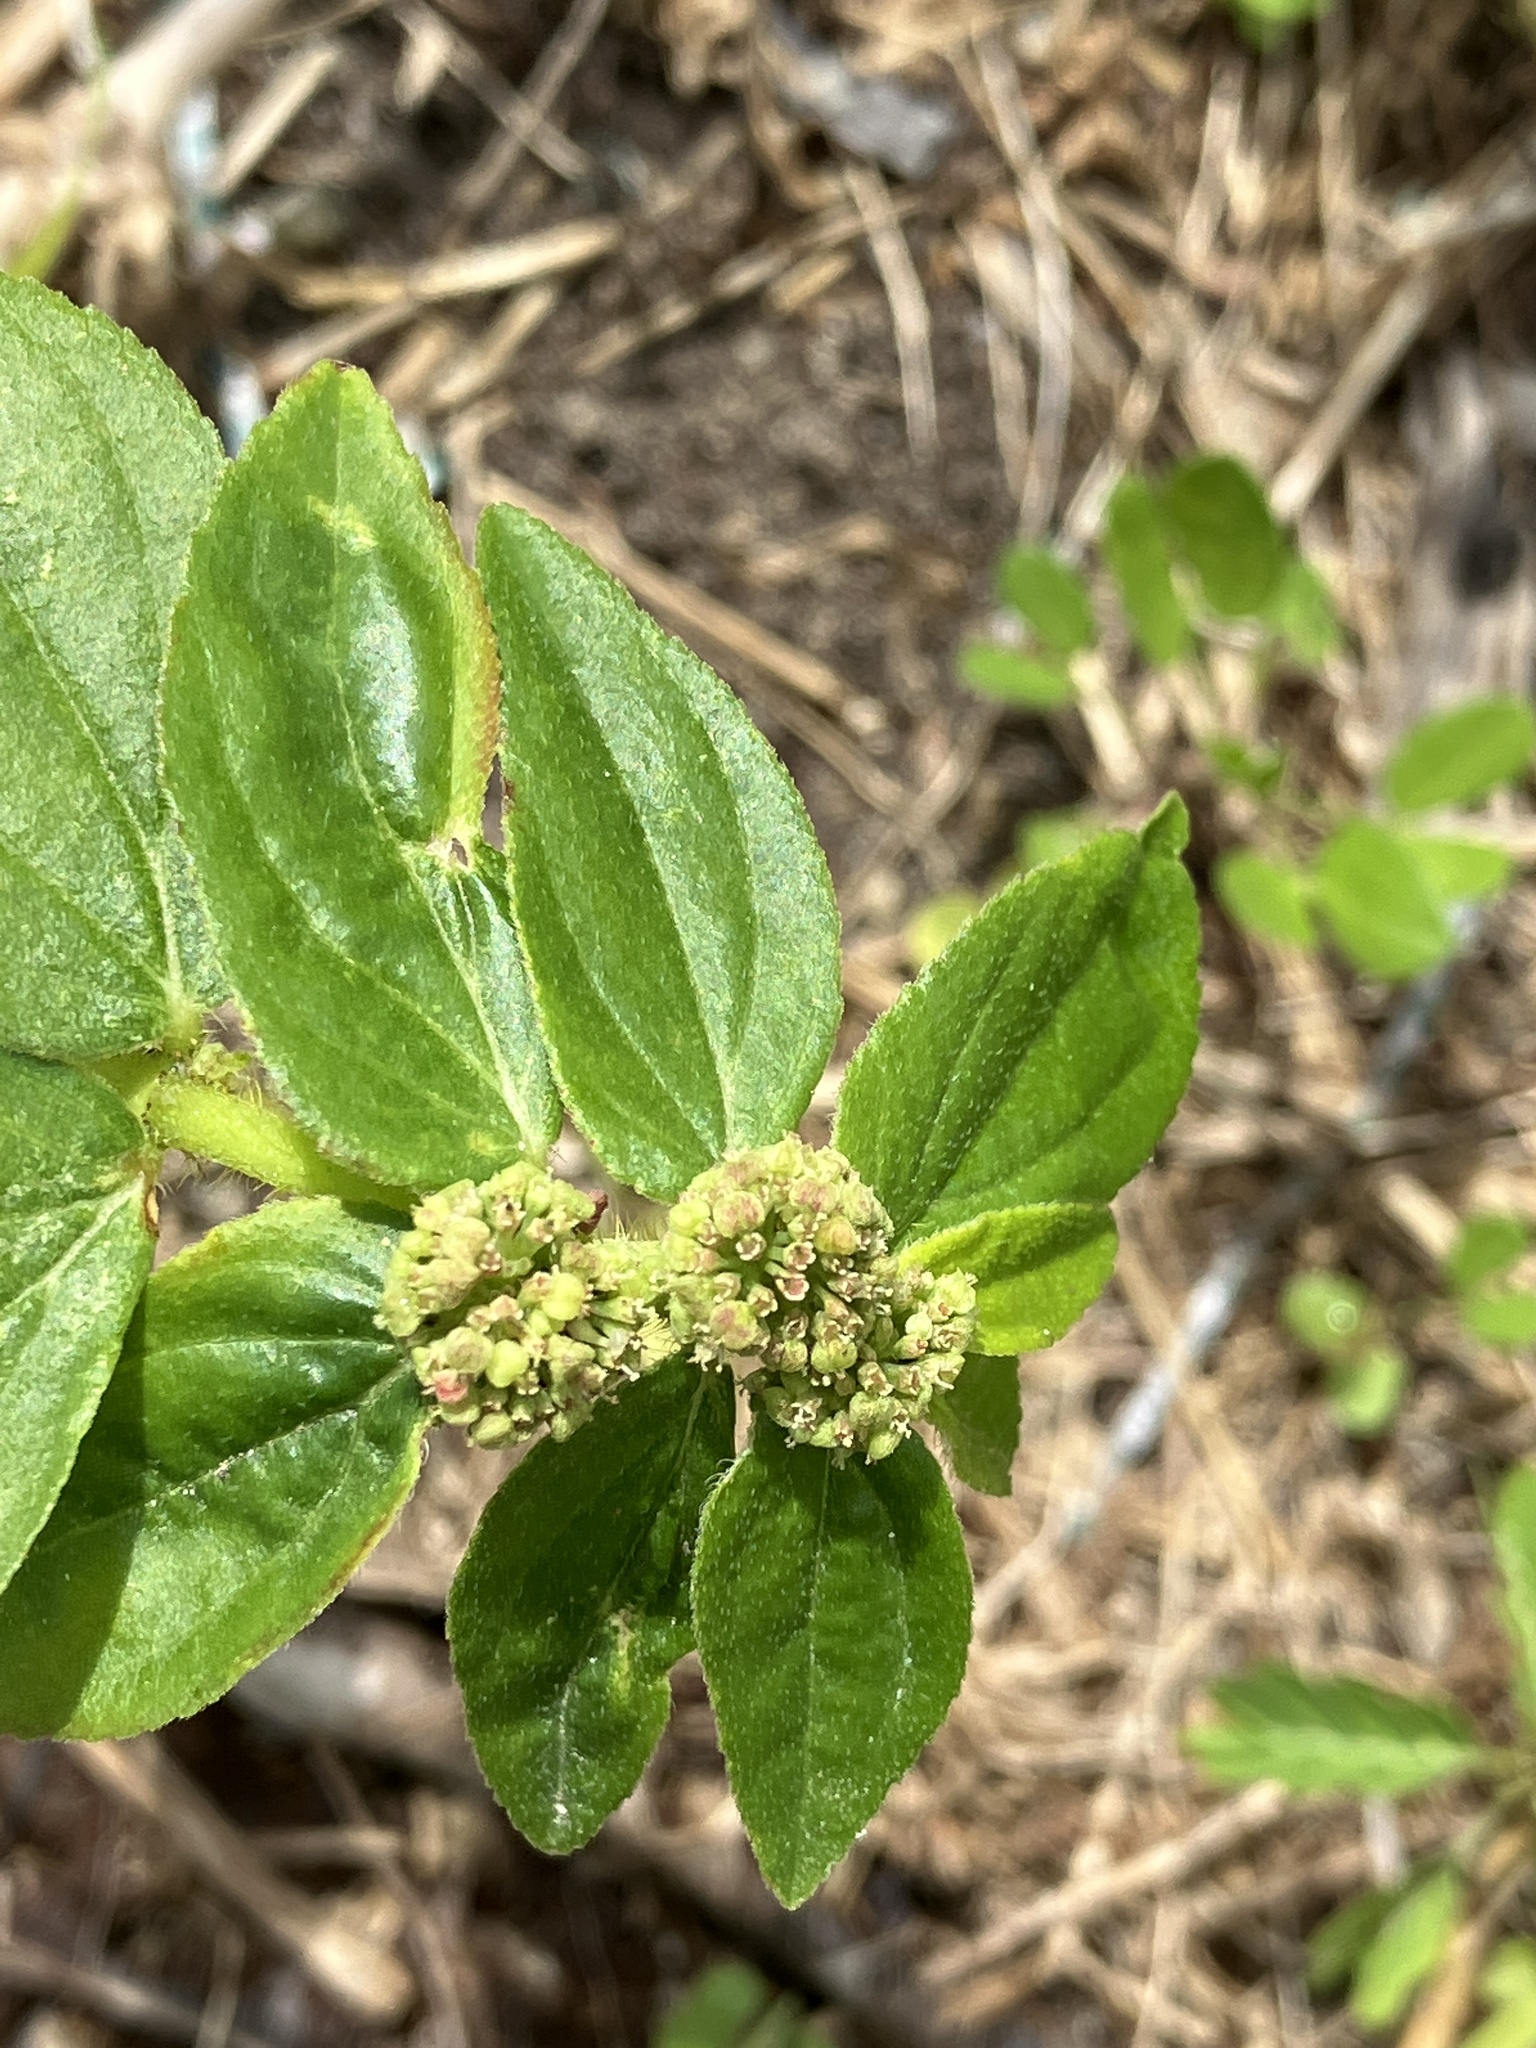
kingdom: Plantae
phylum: Tracheophyta
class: Magnoliopsida
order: Malpighiales
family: Euphorbiaceae
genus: Euphorbia
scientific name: Euphorbia hirta
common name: Pillpod sandmat
